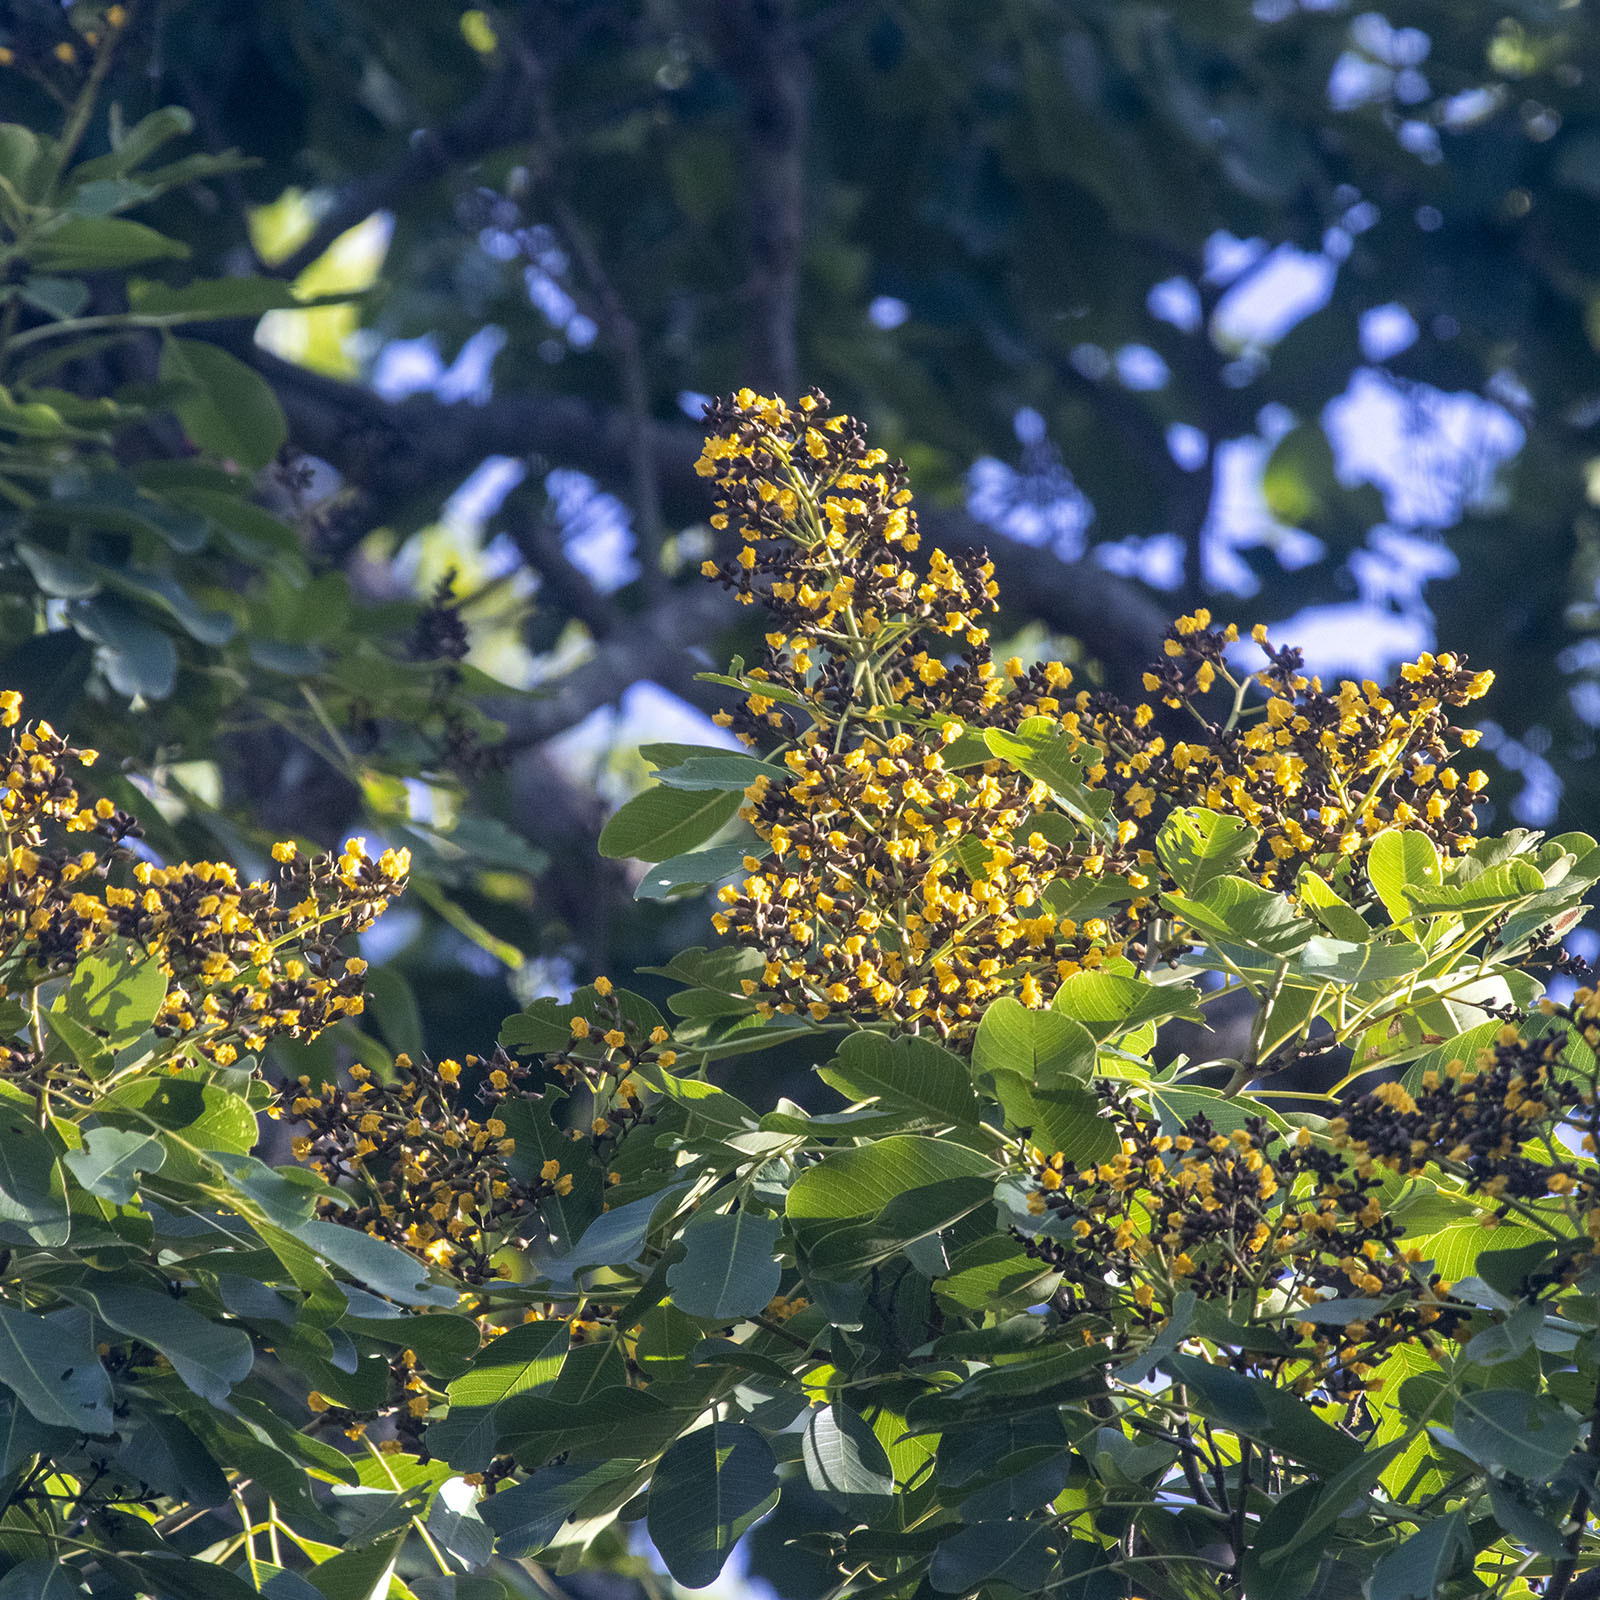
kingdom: Plantae
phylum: Tracheophyta
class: Magnoliopsida
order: Fabales
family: Fabaceae
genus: Pterocarpus
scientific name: Pterocarpus marsupium
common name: East indian/malabar kino
